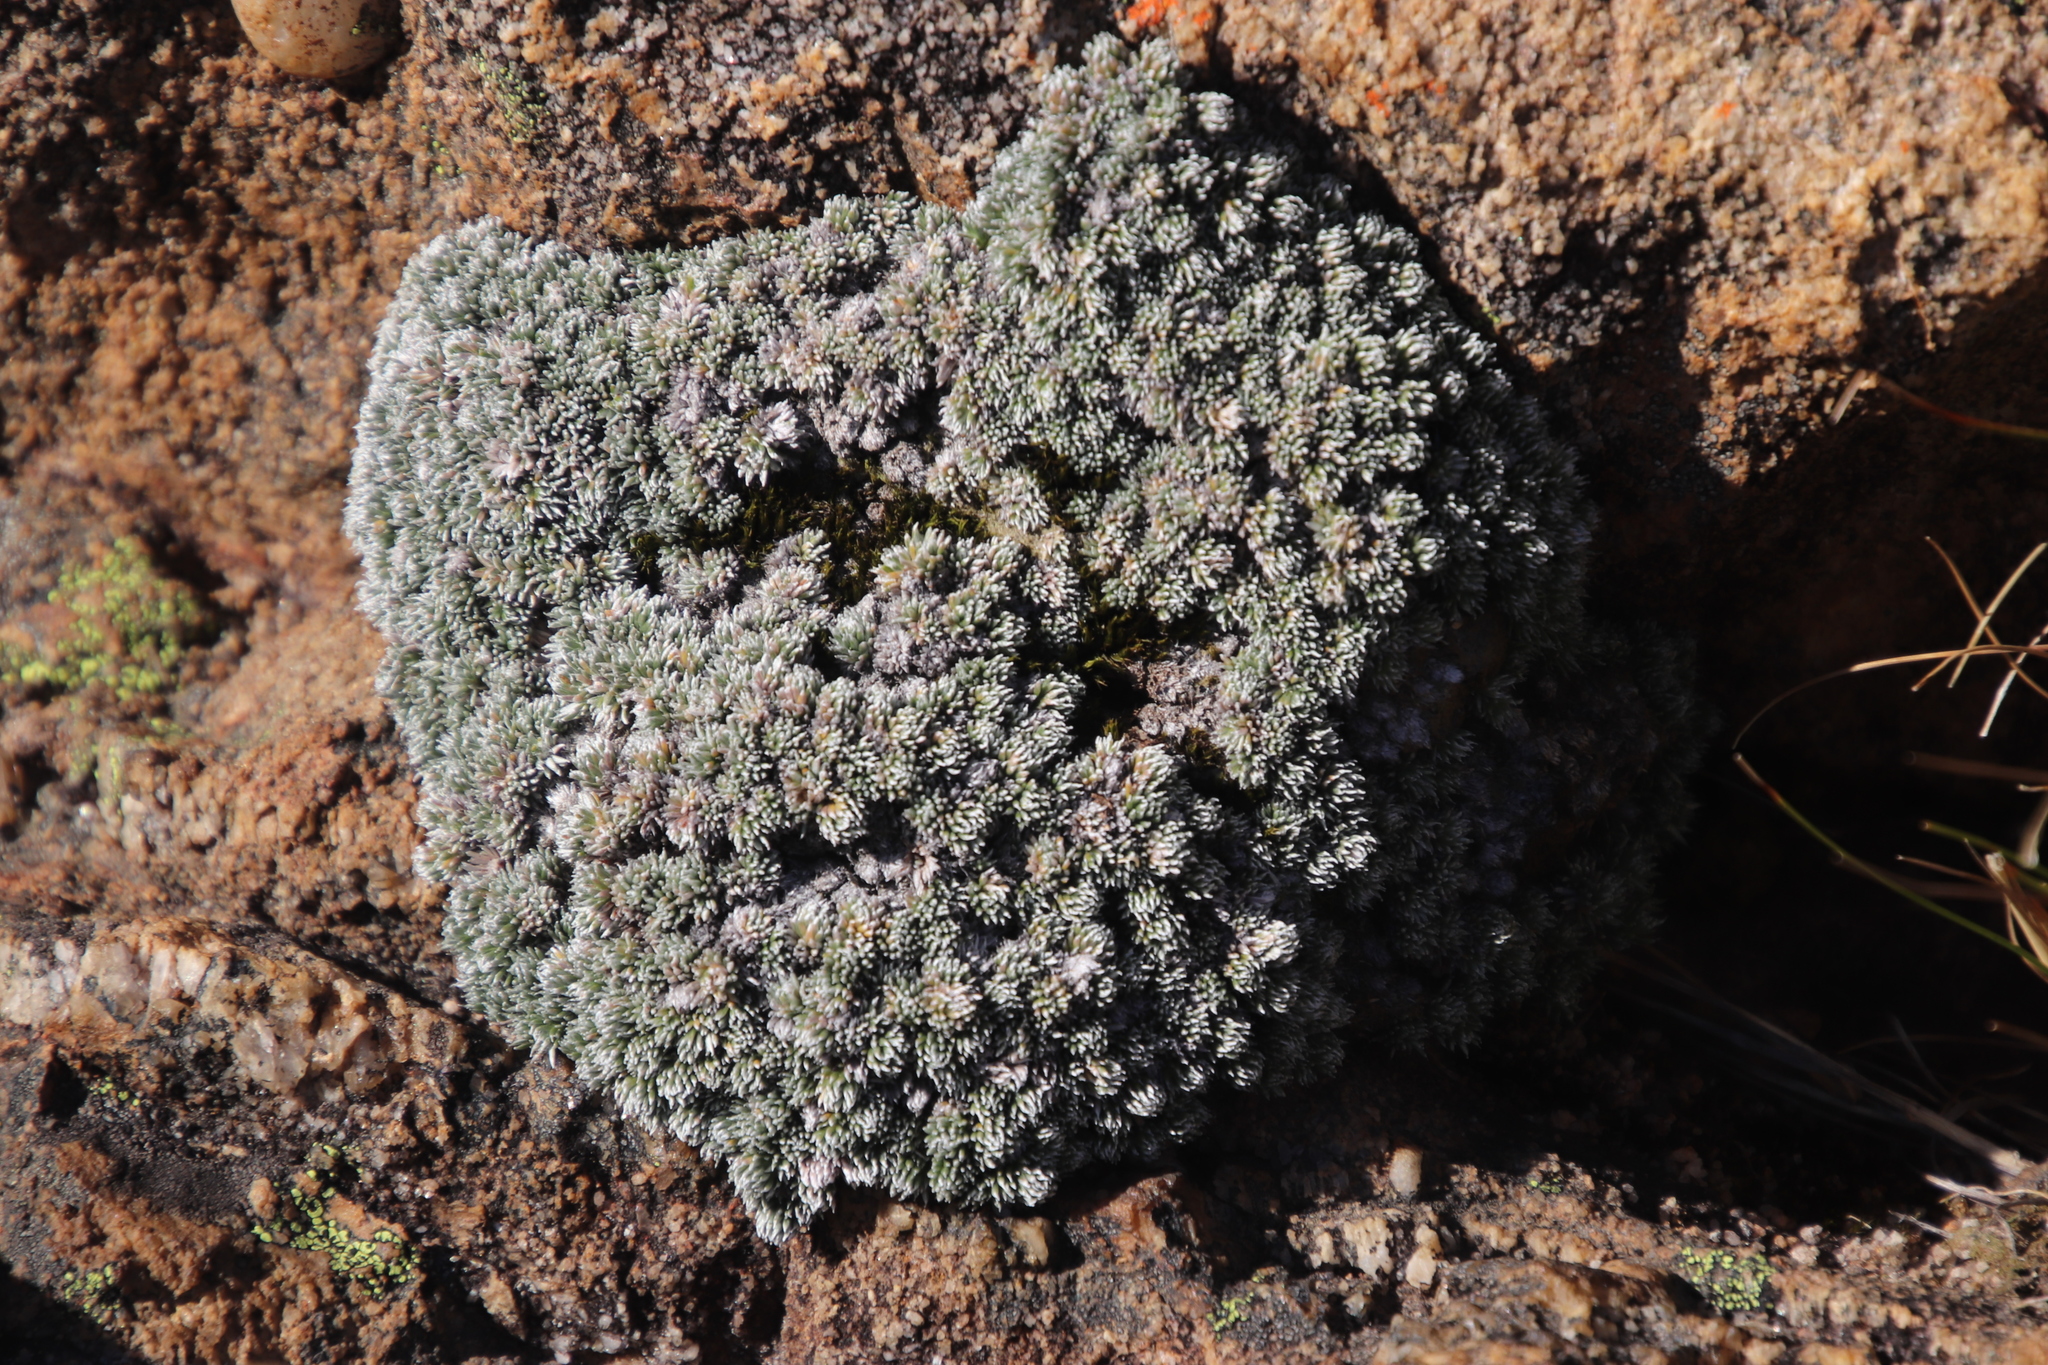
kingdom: Plantae
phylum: Tracheophyta
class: Magnoliopsida
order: Asterales
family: Asteraceae
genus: Muscosomorphe
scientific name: Muscosomorphe aretioides
